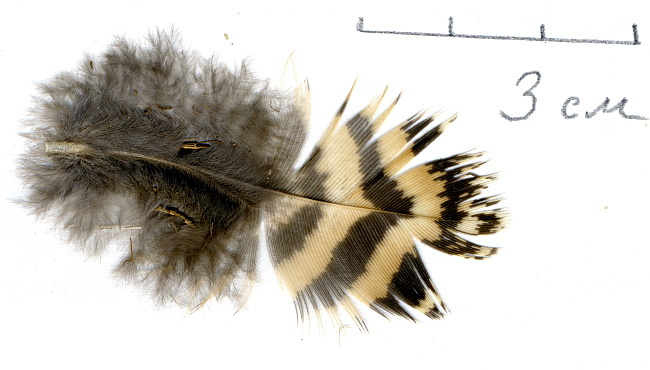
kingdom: Animalia
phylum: Chordata
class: Aves
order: Galliformes
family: Phasianidae
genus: Lyrurus
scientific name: Lyrurus tetrix
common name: Black grouse
